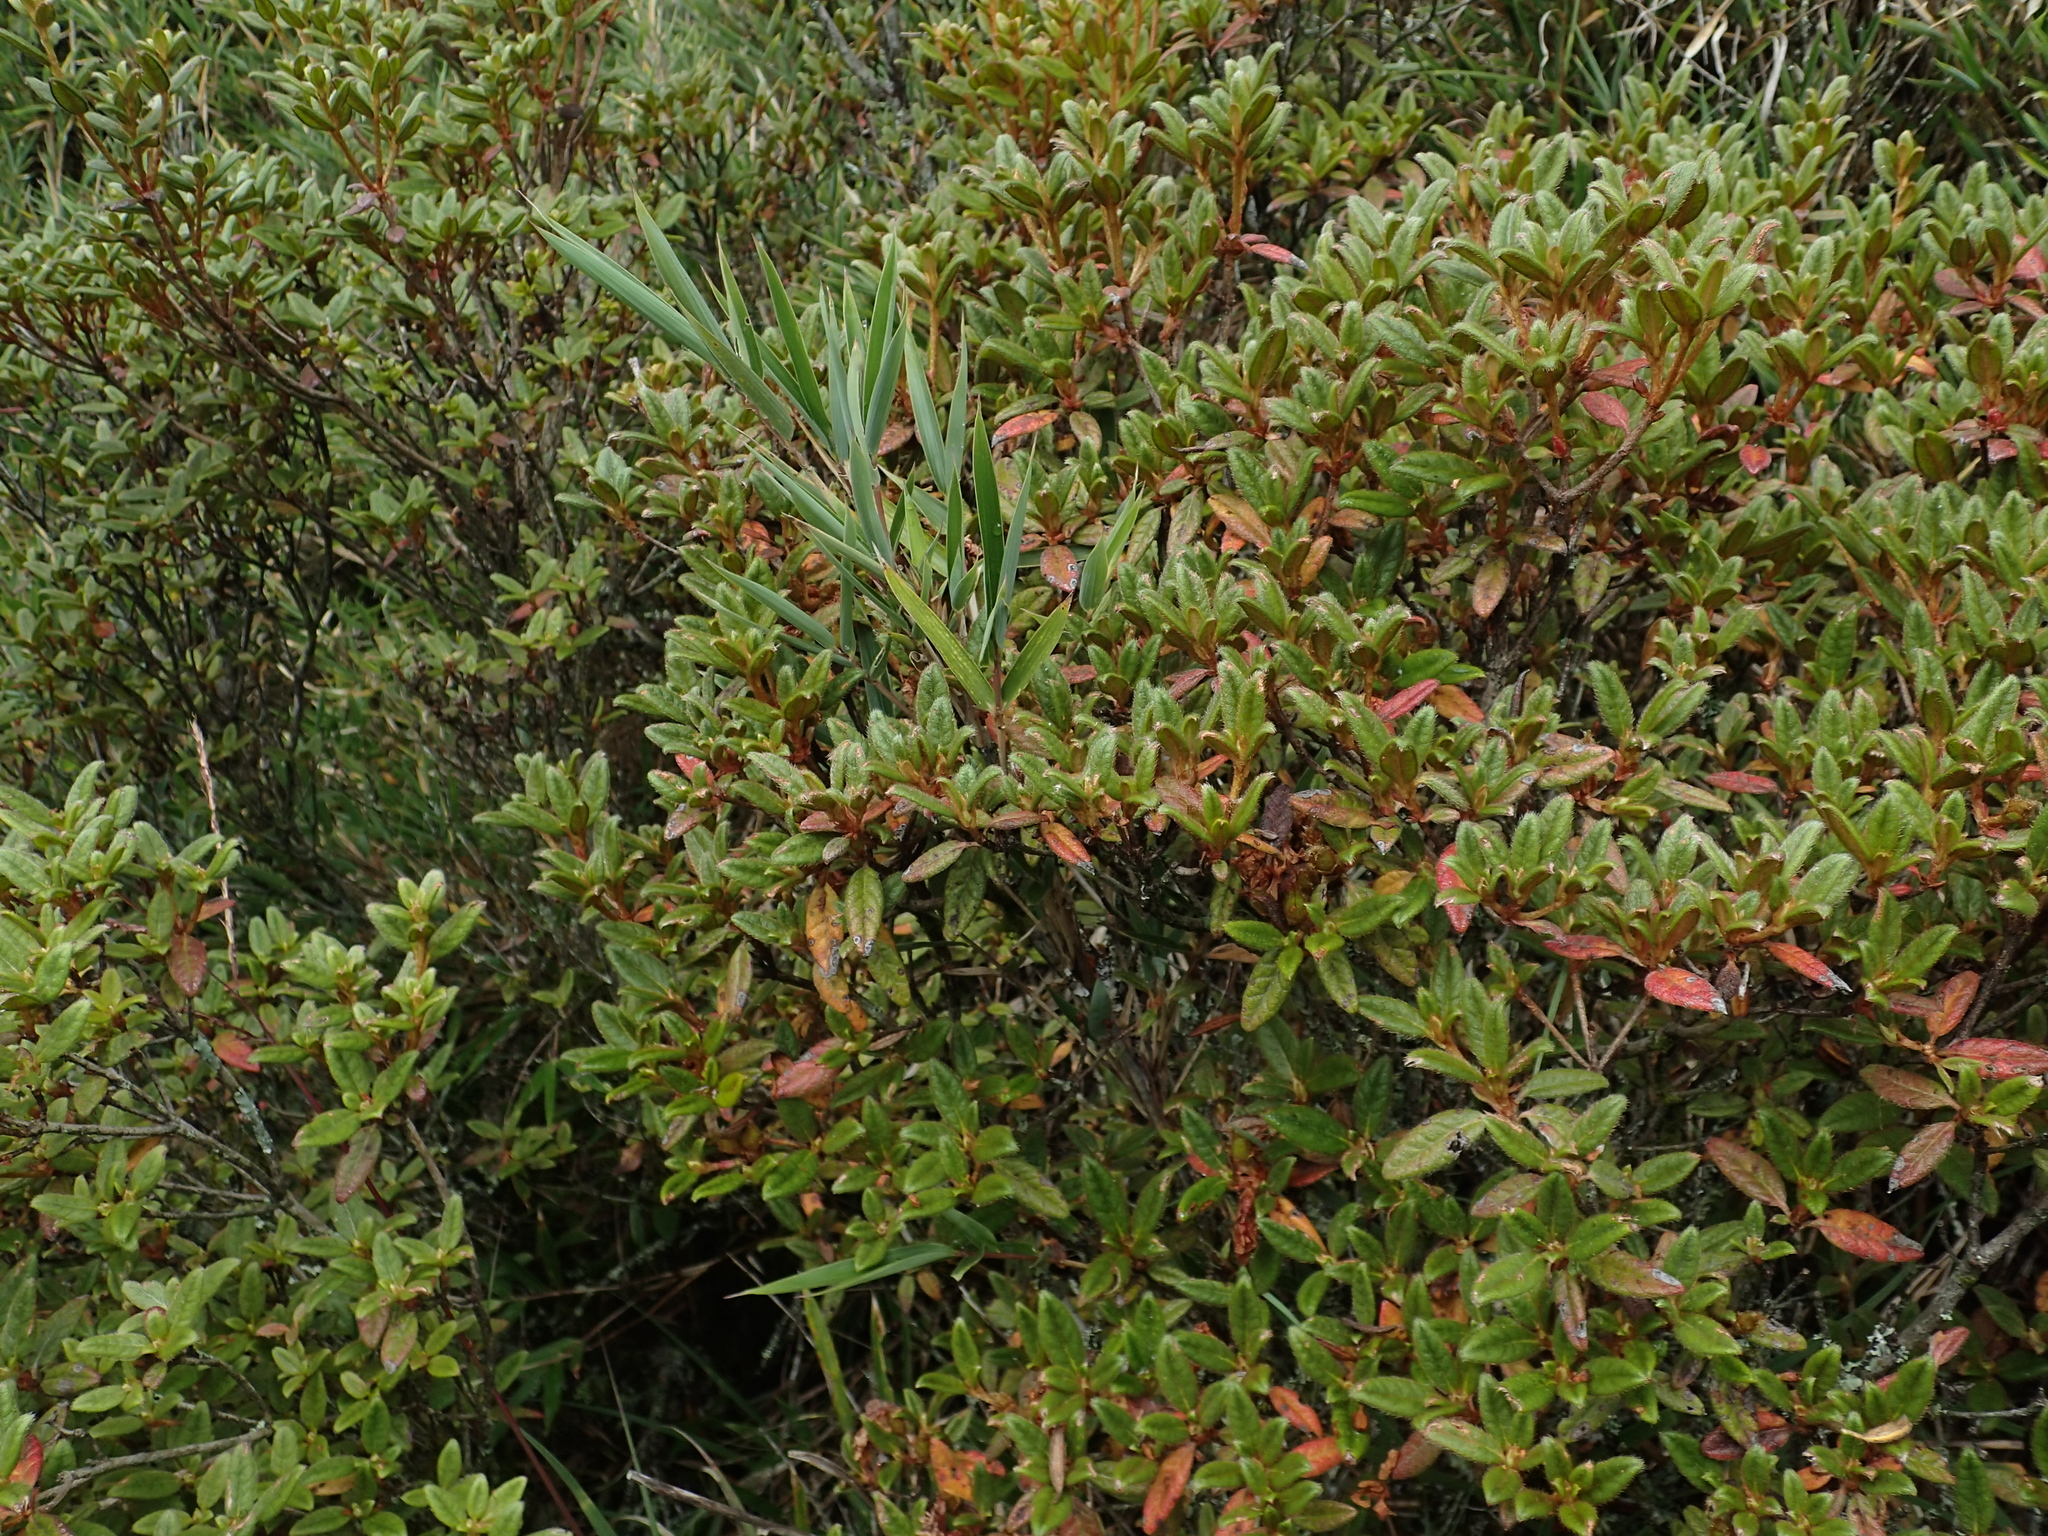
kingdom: Plantae
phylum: Tracheophyta
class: Magnoliopsida
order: Ericales
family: Ericaceae
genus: Rhododendron
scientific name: Rhododendron taiwanalpinum
